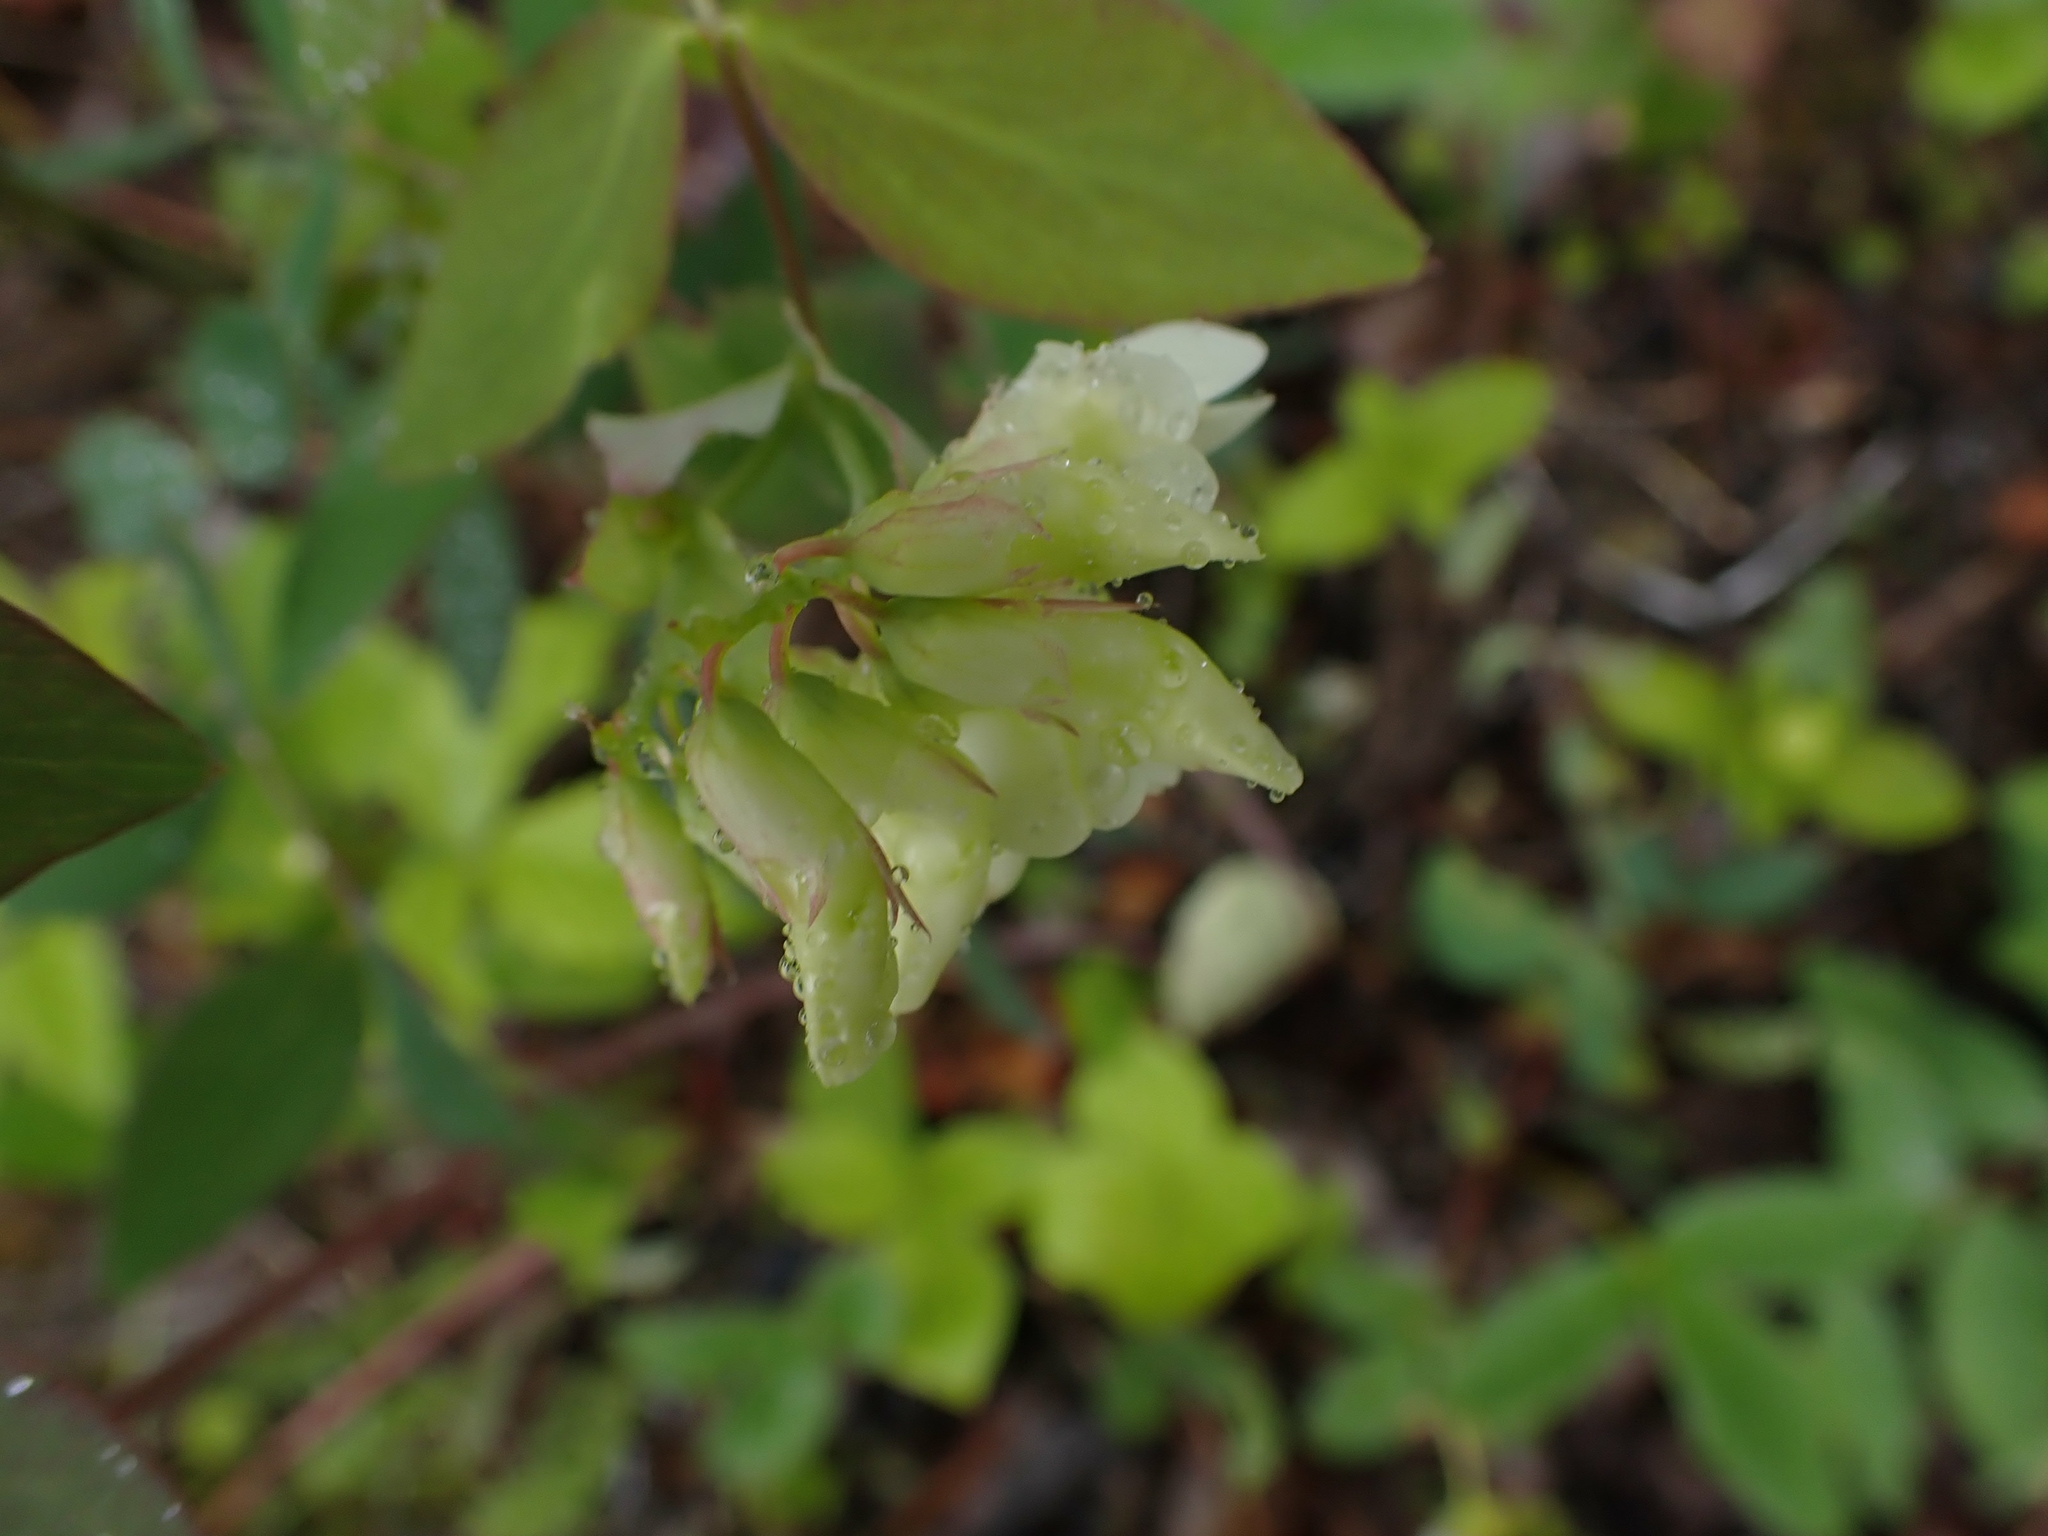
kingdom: Plantae
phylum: Tracheophyta
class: Magnoliopsida
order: Fabales
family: Fabaceae
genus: Lathyrus
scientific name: Lathyrus ochroleucus
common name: Pale vetchling
